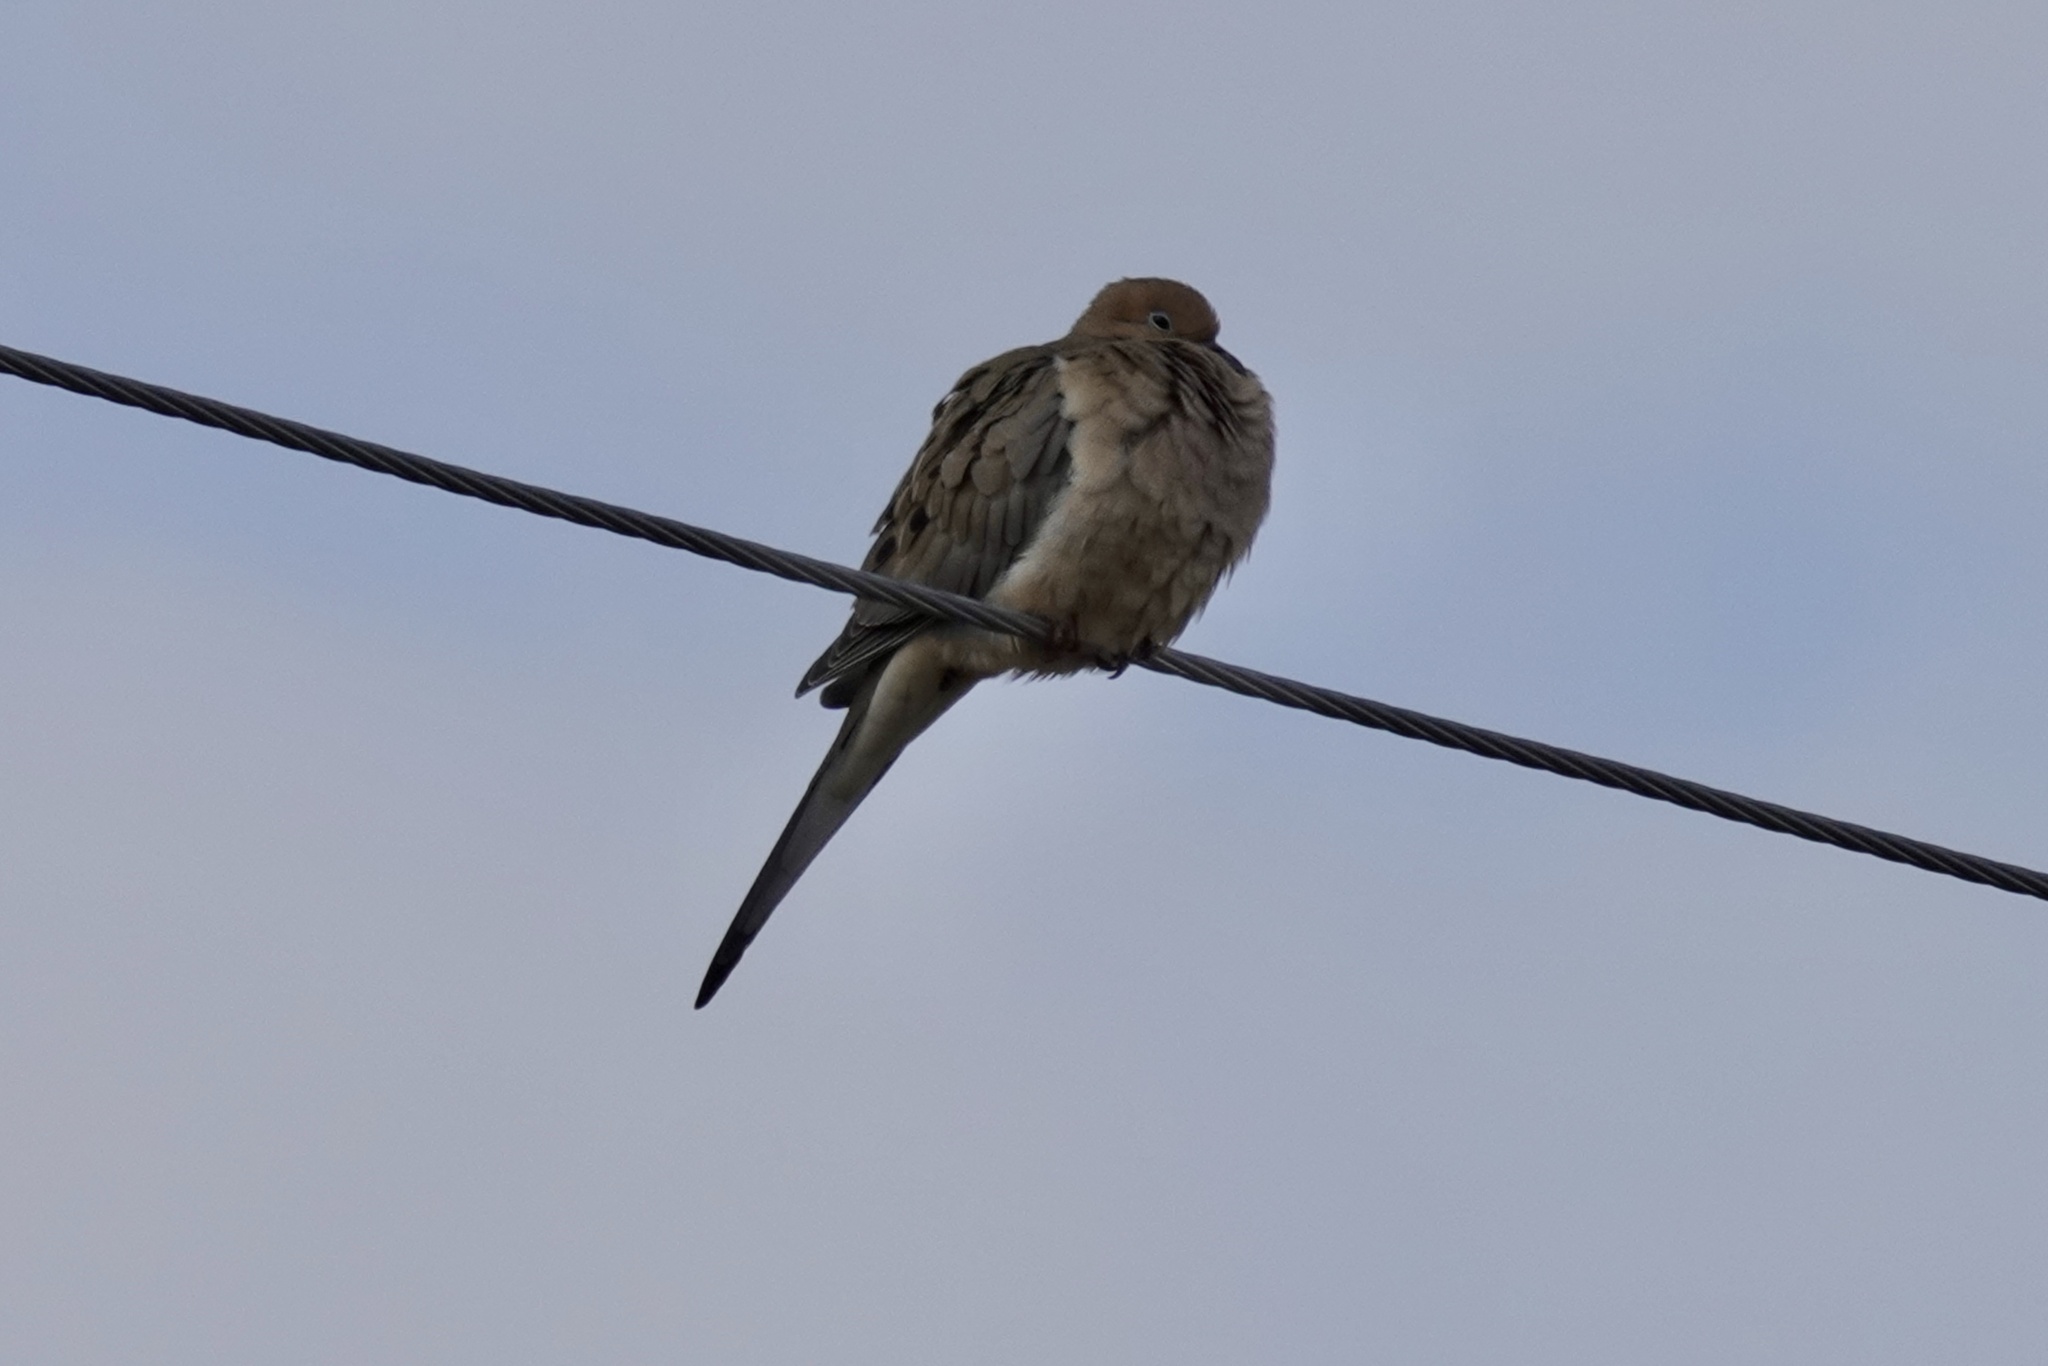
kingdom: Animalia
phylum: Chordata
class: Aves
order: Columbiformes
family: Columbidae
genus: Zenaida
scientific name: Zenaida macroura
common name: Mourning dove
